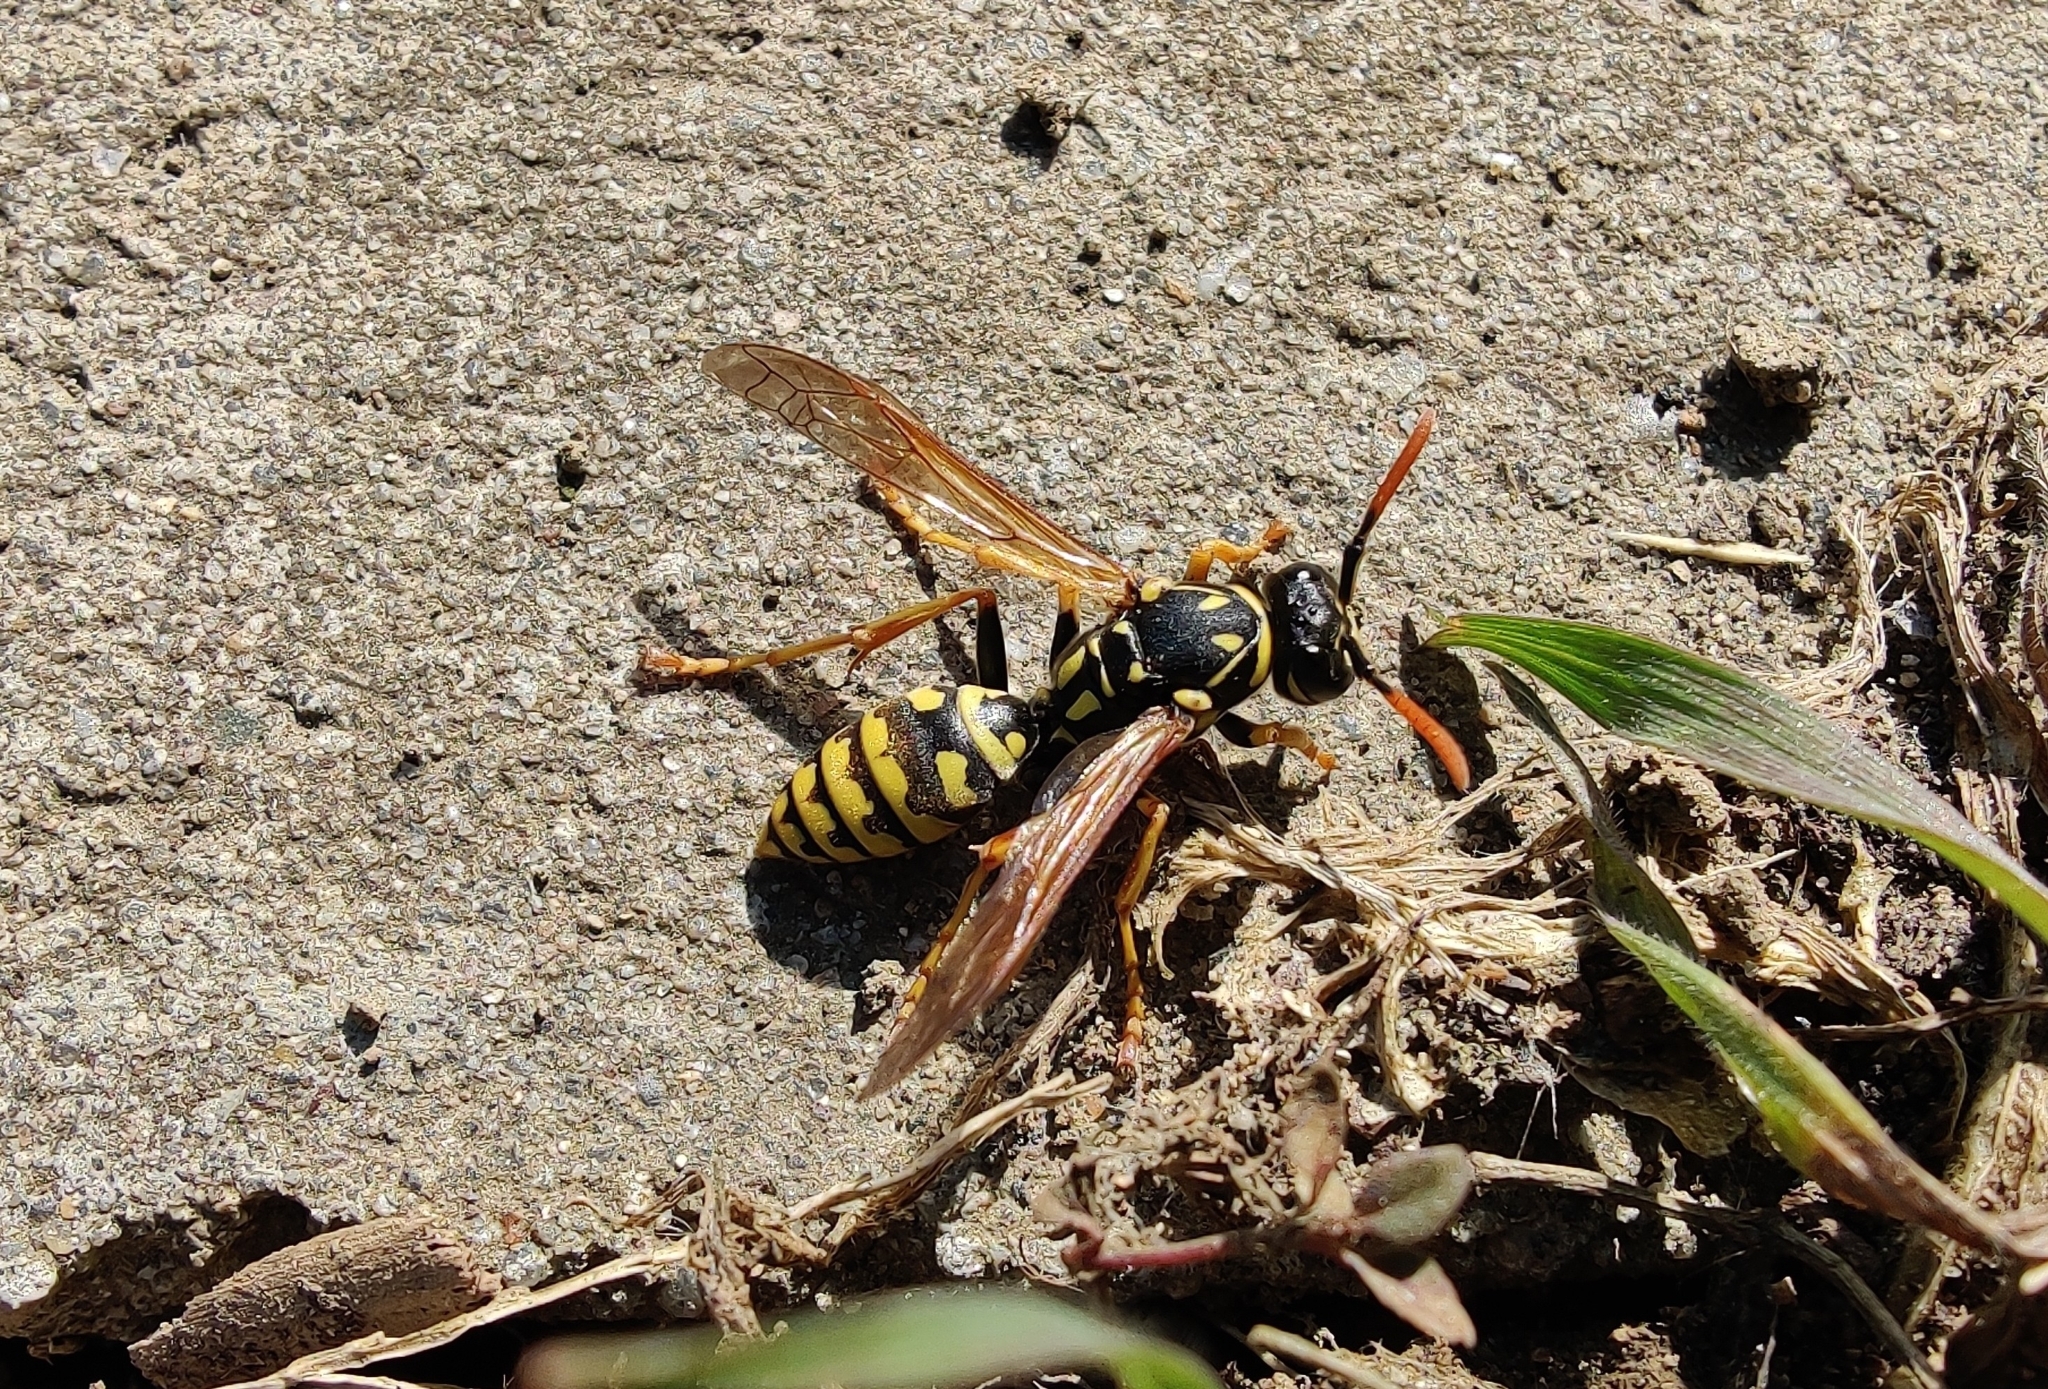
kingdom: Animalia
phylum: Arthropoda
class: Insecta
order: Hymenoptera
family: Eumenidae
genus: Polistes
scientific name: Polistes dominula
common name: Paper wasp
